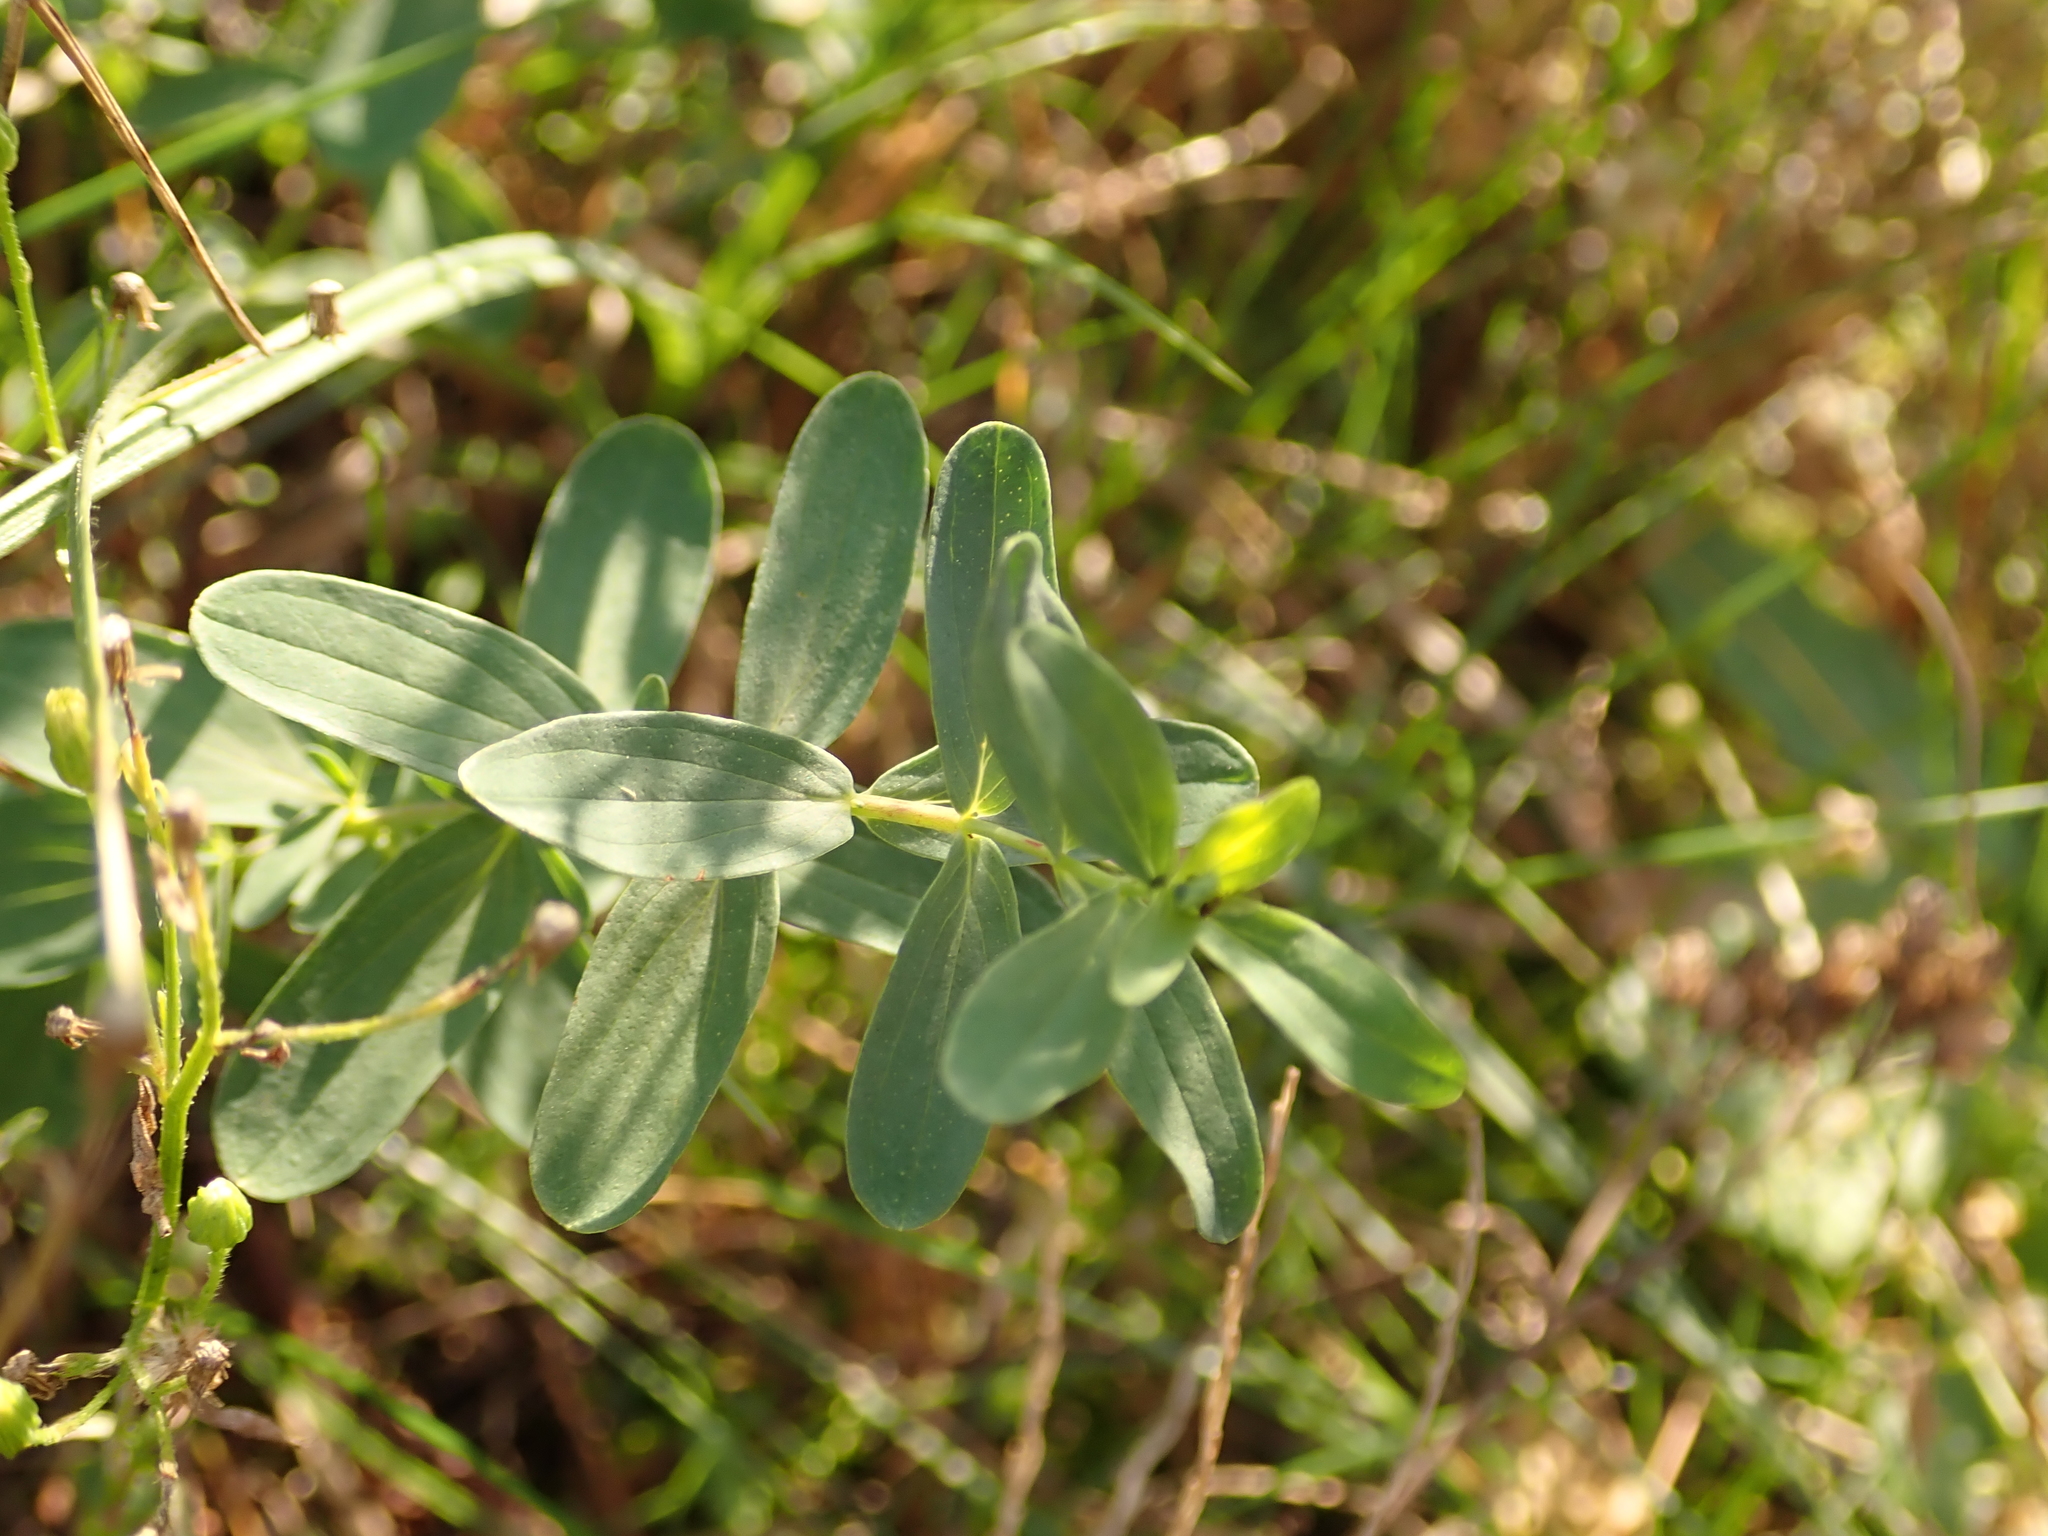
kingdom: Plantae
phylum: Tracheophyta
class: Magnoliopsida
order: Malpighiales
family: Hypericaceae
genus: Hypericum
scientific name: Hypericum perforatum
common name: Common st. johnswort
